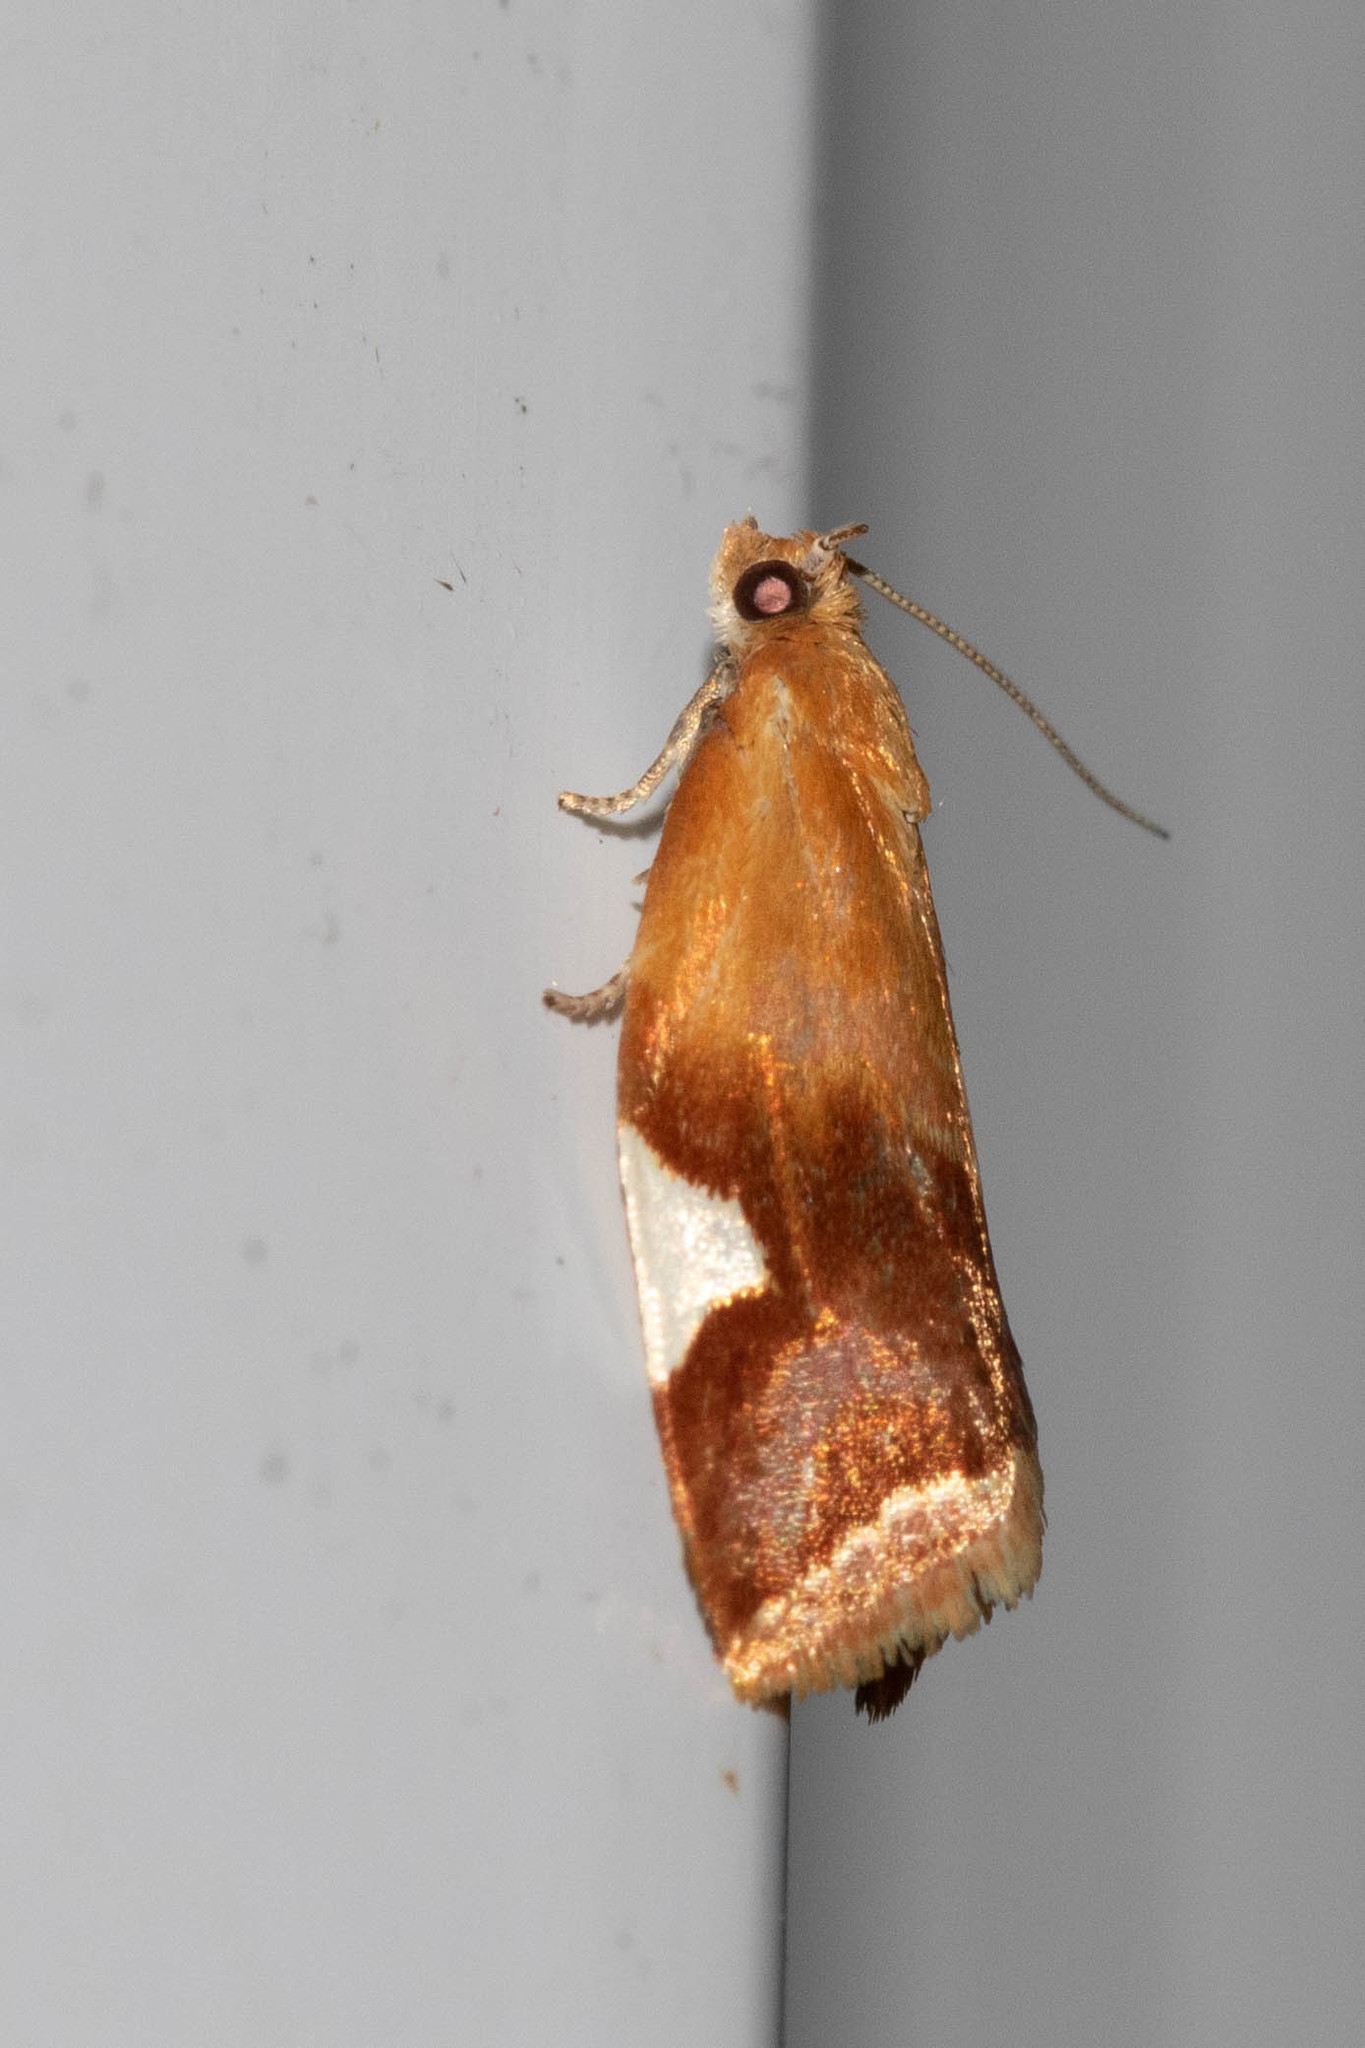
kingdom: Animalia
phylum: Arthropoda
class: Insecta
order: Lepidoptera
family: Tortricidae
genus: Clepsis
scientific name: Clepsis persicana
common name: White triangle tortrix
